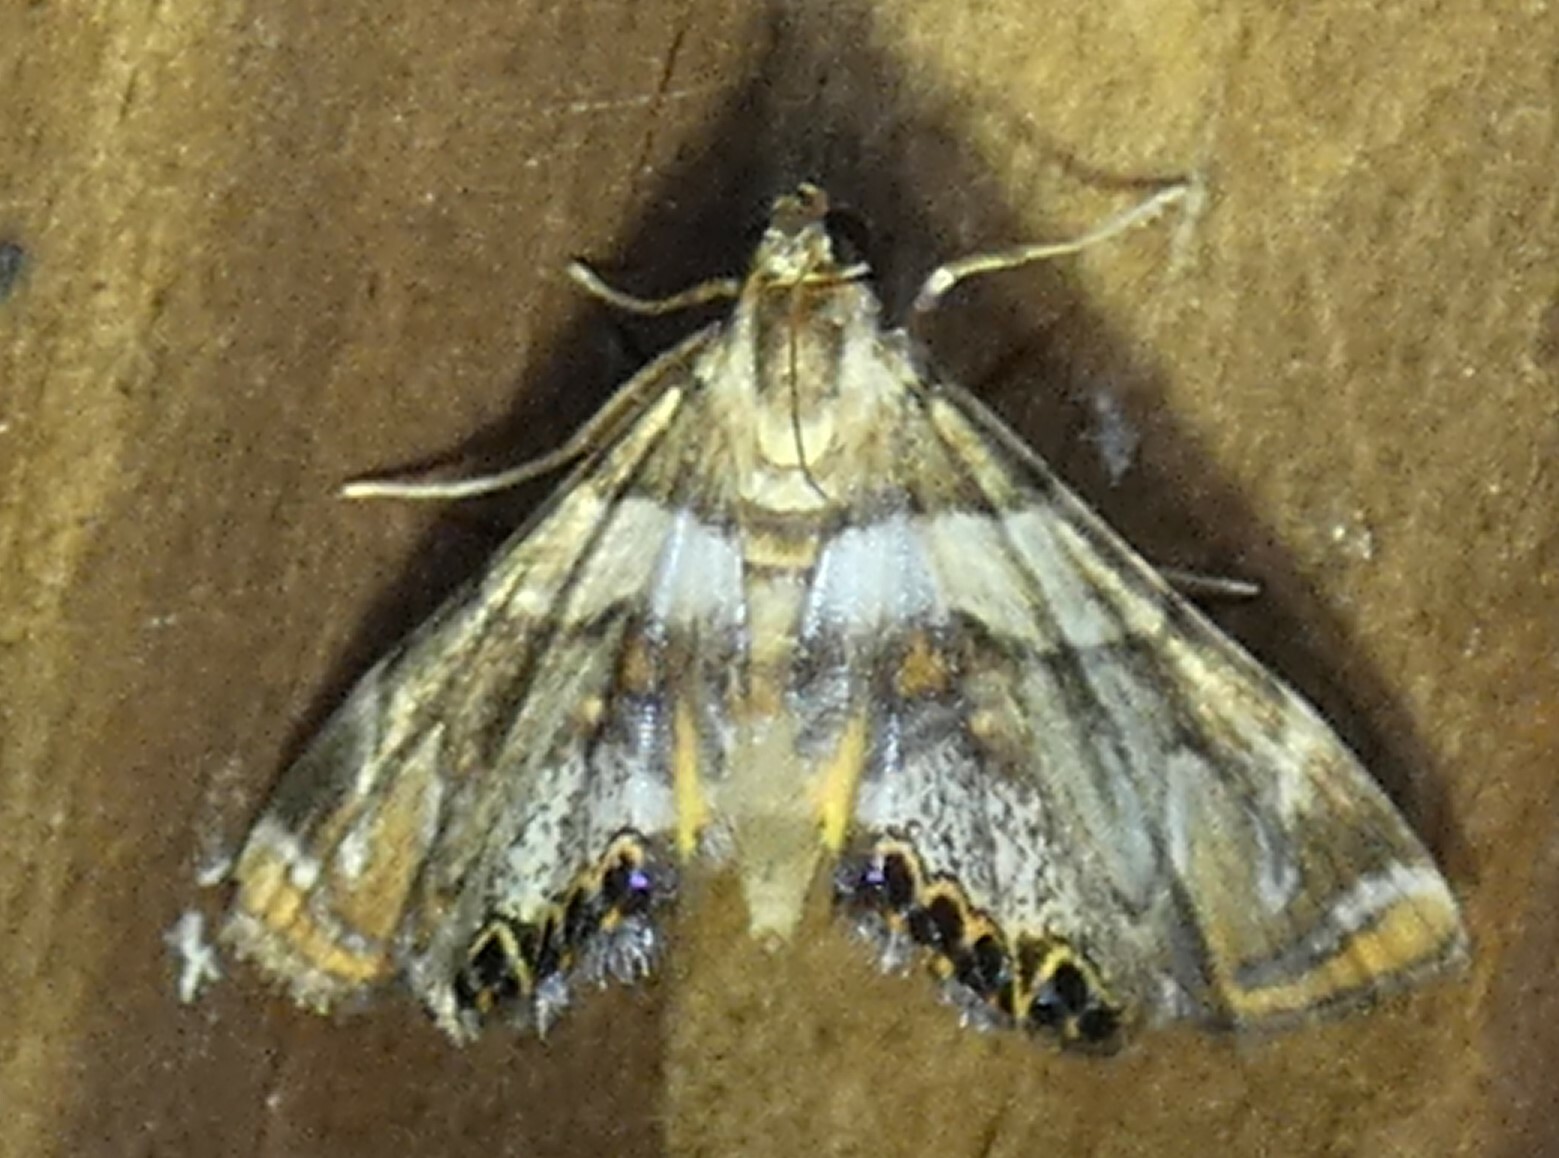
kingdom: Animalia
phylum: Arthropoda
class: Insecta
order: Lepidoptera
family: Crambidae
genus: Neargyractis
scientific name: Neargyractis slossonalis
